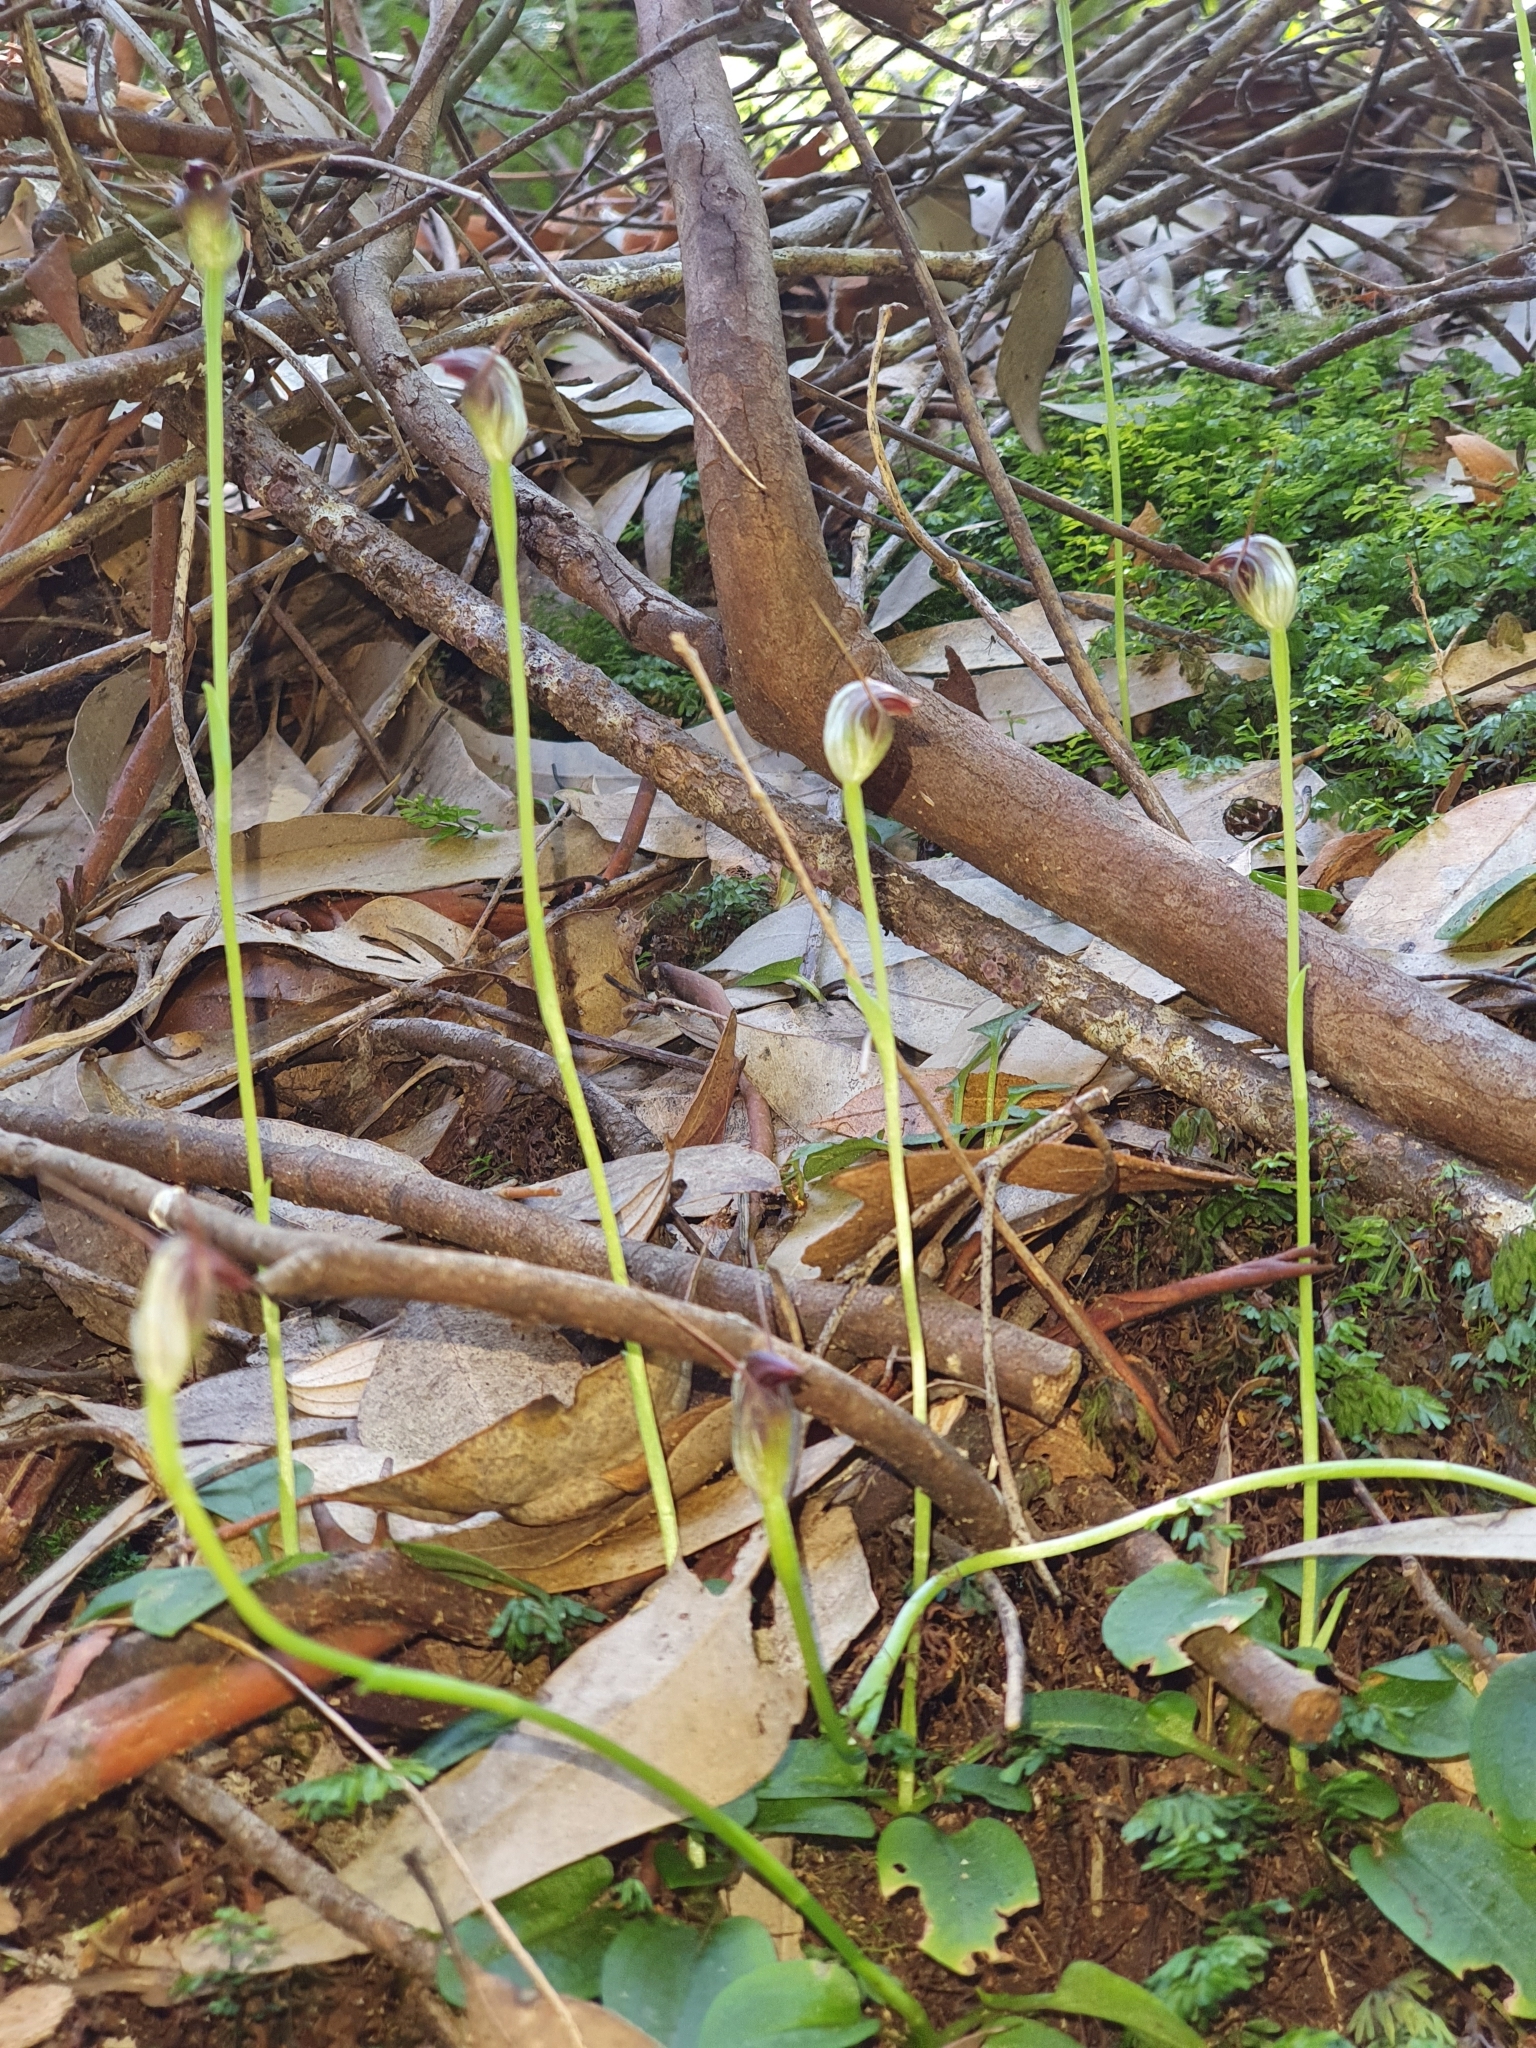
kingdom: Plantae
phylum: Tracheophyta
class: Liliopsida
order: Asparagales
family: Orchidaceae
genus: Pterostylis
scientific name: Pterostylis pedunculata
